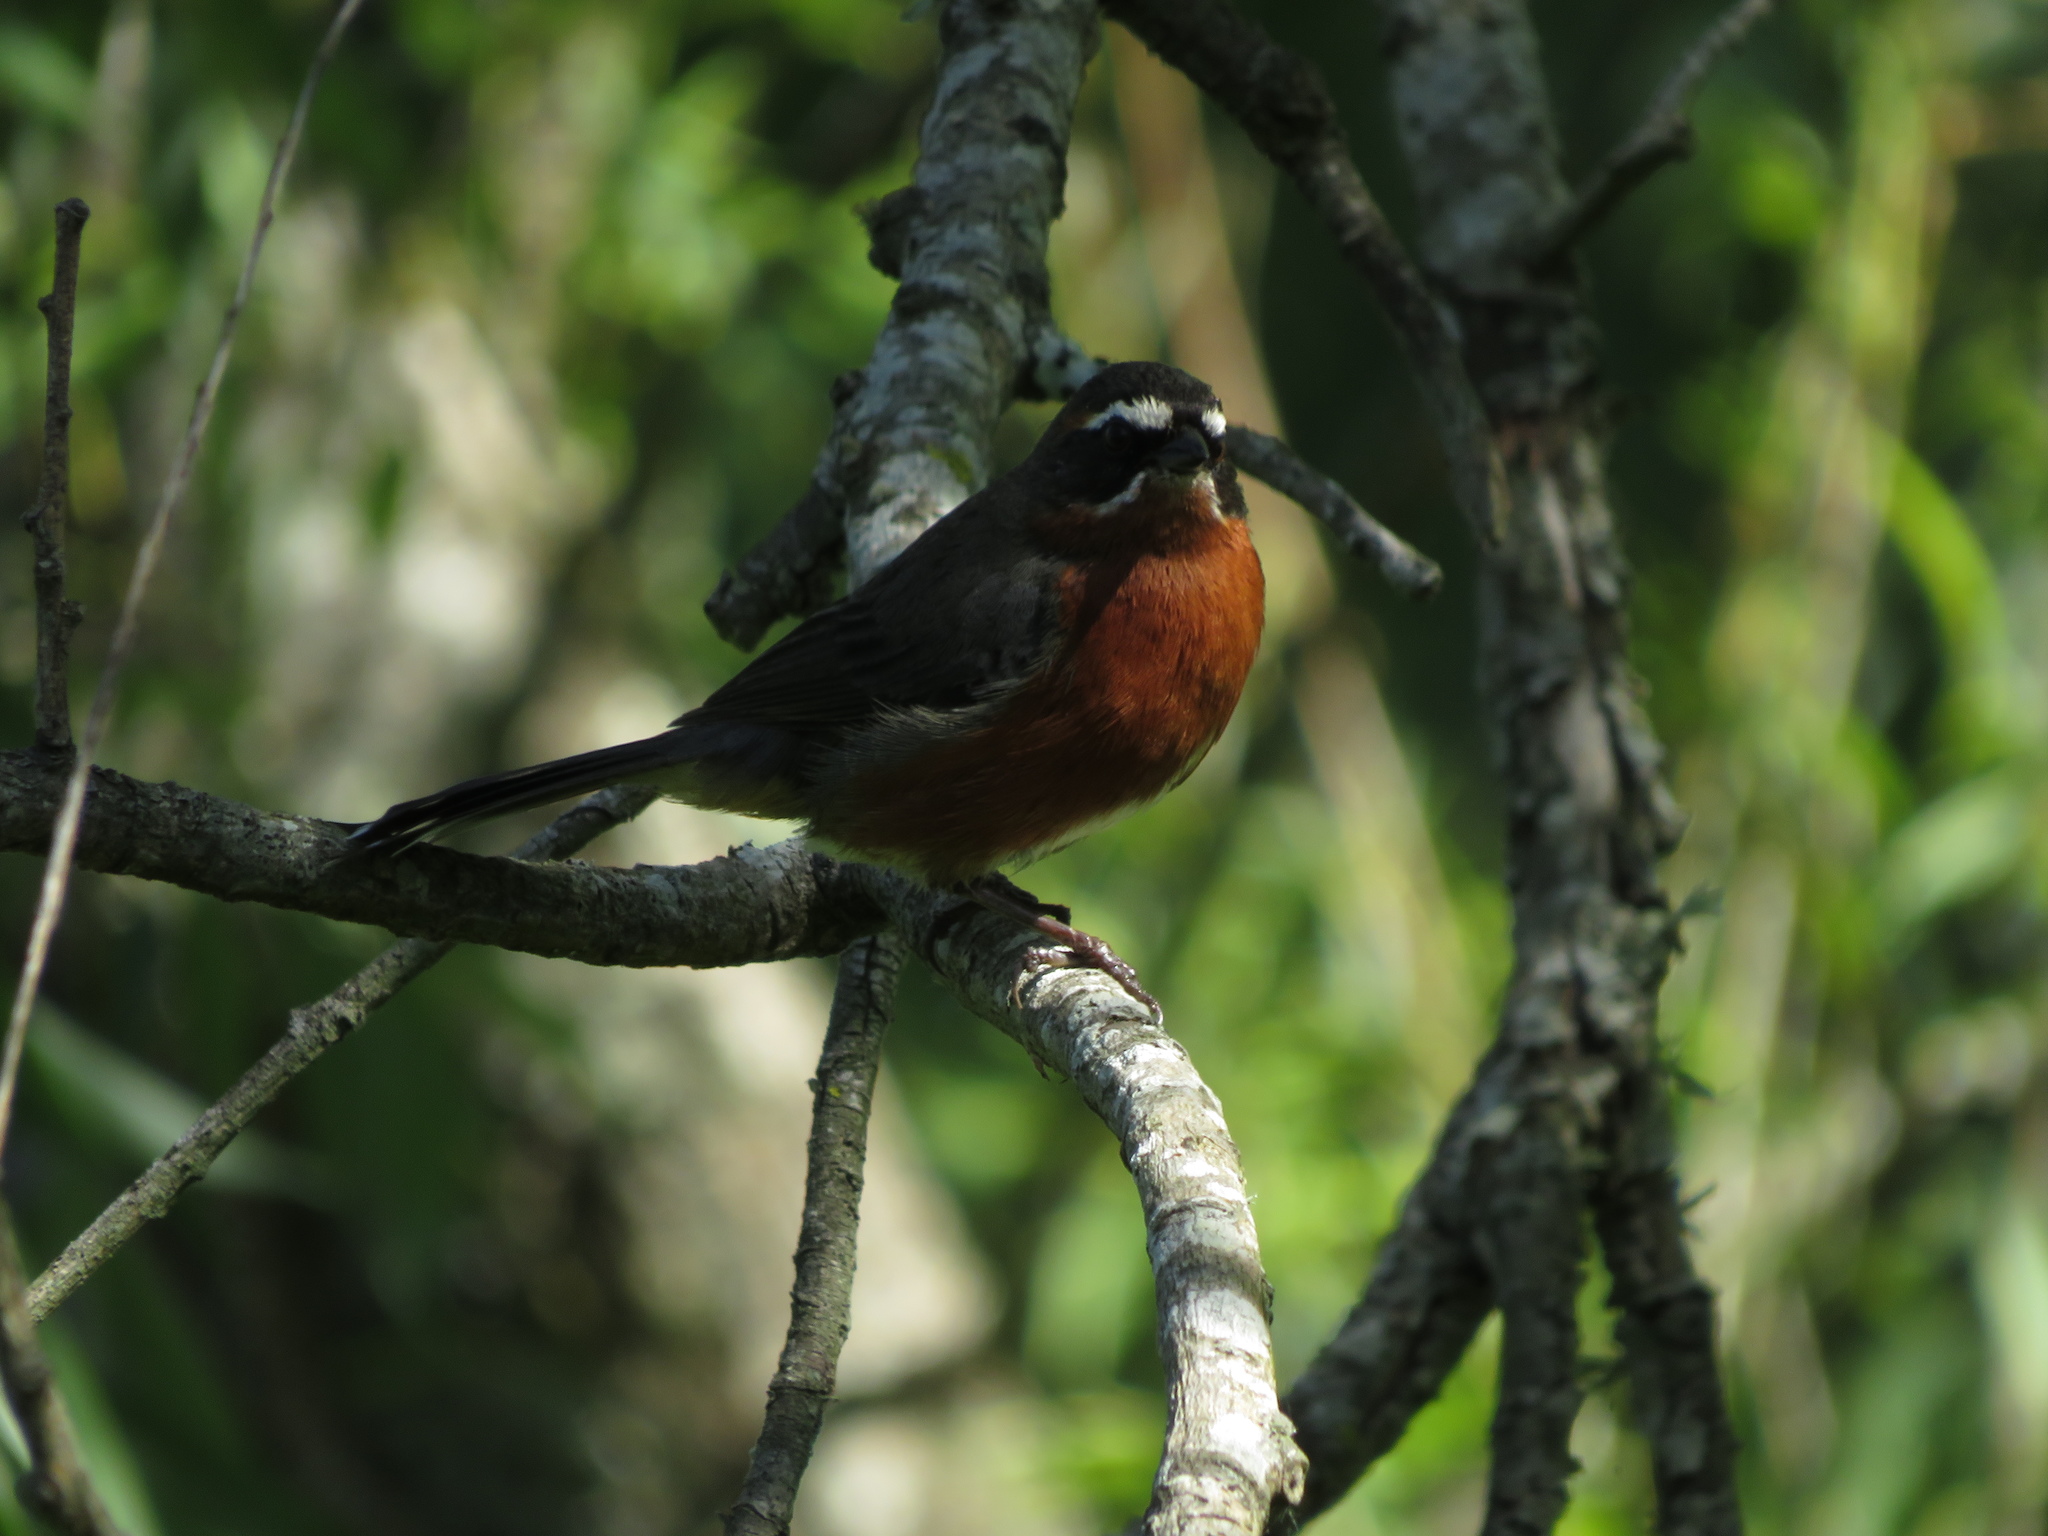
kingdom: Animalia
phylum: Chordata
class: Aves
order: Passeriformes
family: Thraupidae
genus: Poospiza
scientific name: Poospiza nigrorufa
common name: Black-and-rufous warbling finch
